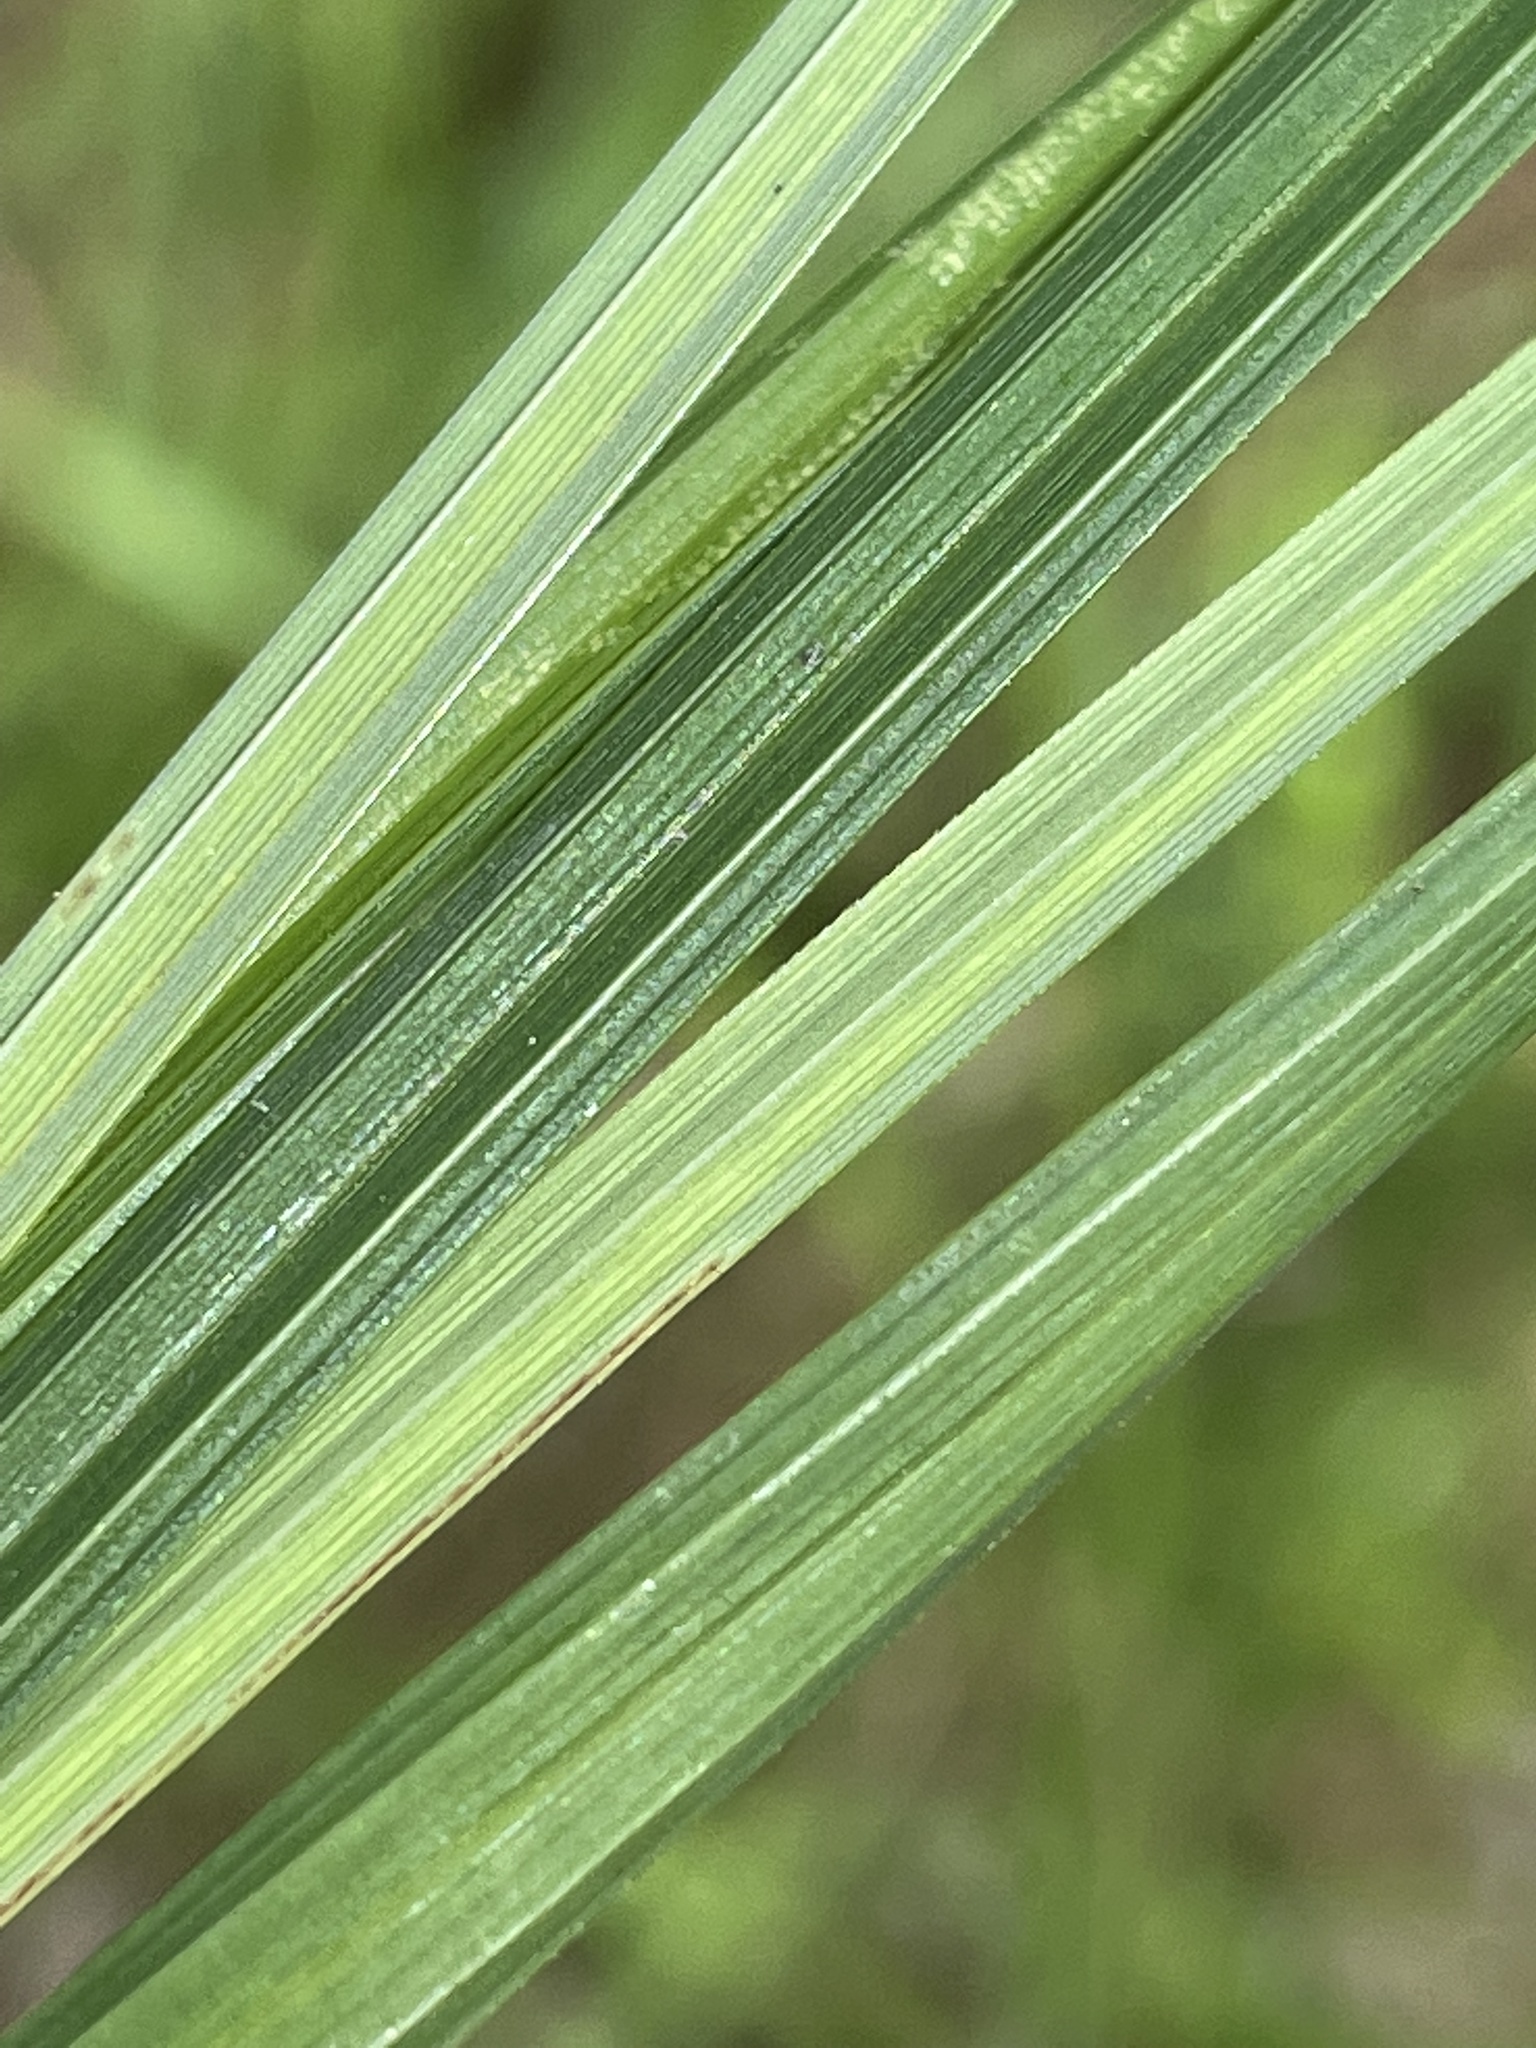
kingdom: Plantae
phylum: Tracheophyta
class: Liliopsida
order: Poales
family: Cyperaceae
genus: Carex
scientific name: Carex barrattii
